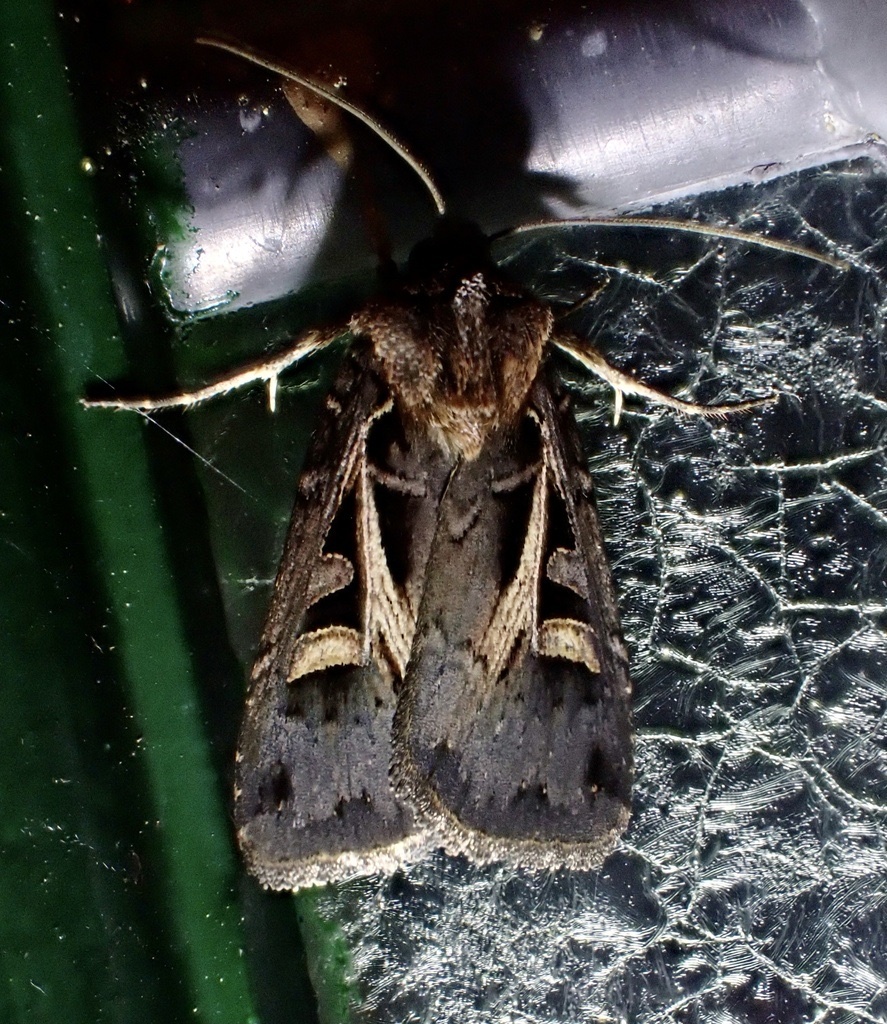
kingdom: Animalia
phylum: Arthropoda
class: Insecta
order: Lepidoptera
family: Noctuidae
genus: Feltia
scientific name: Feltia herilis
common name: Master's dart
